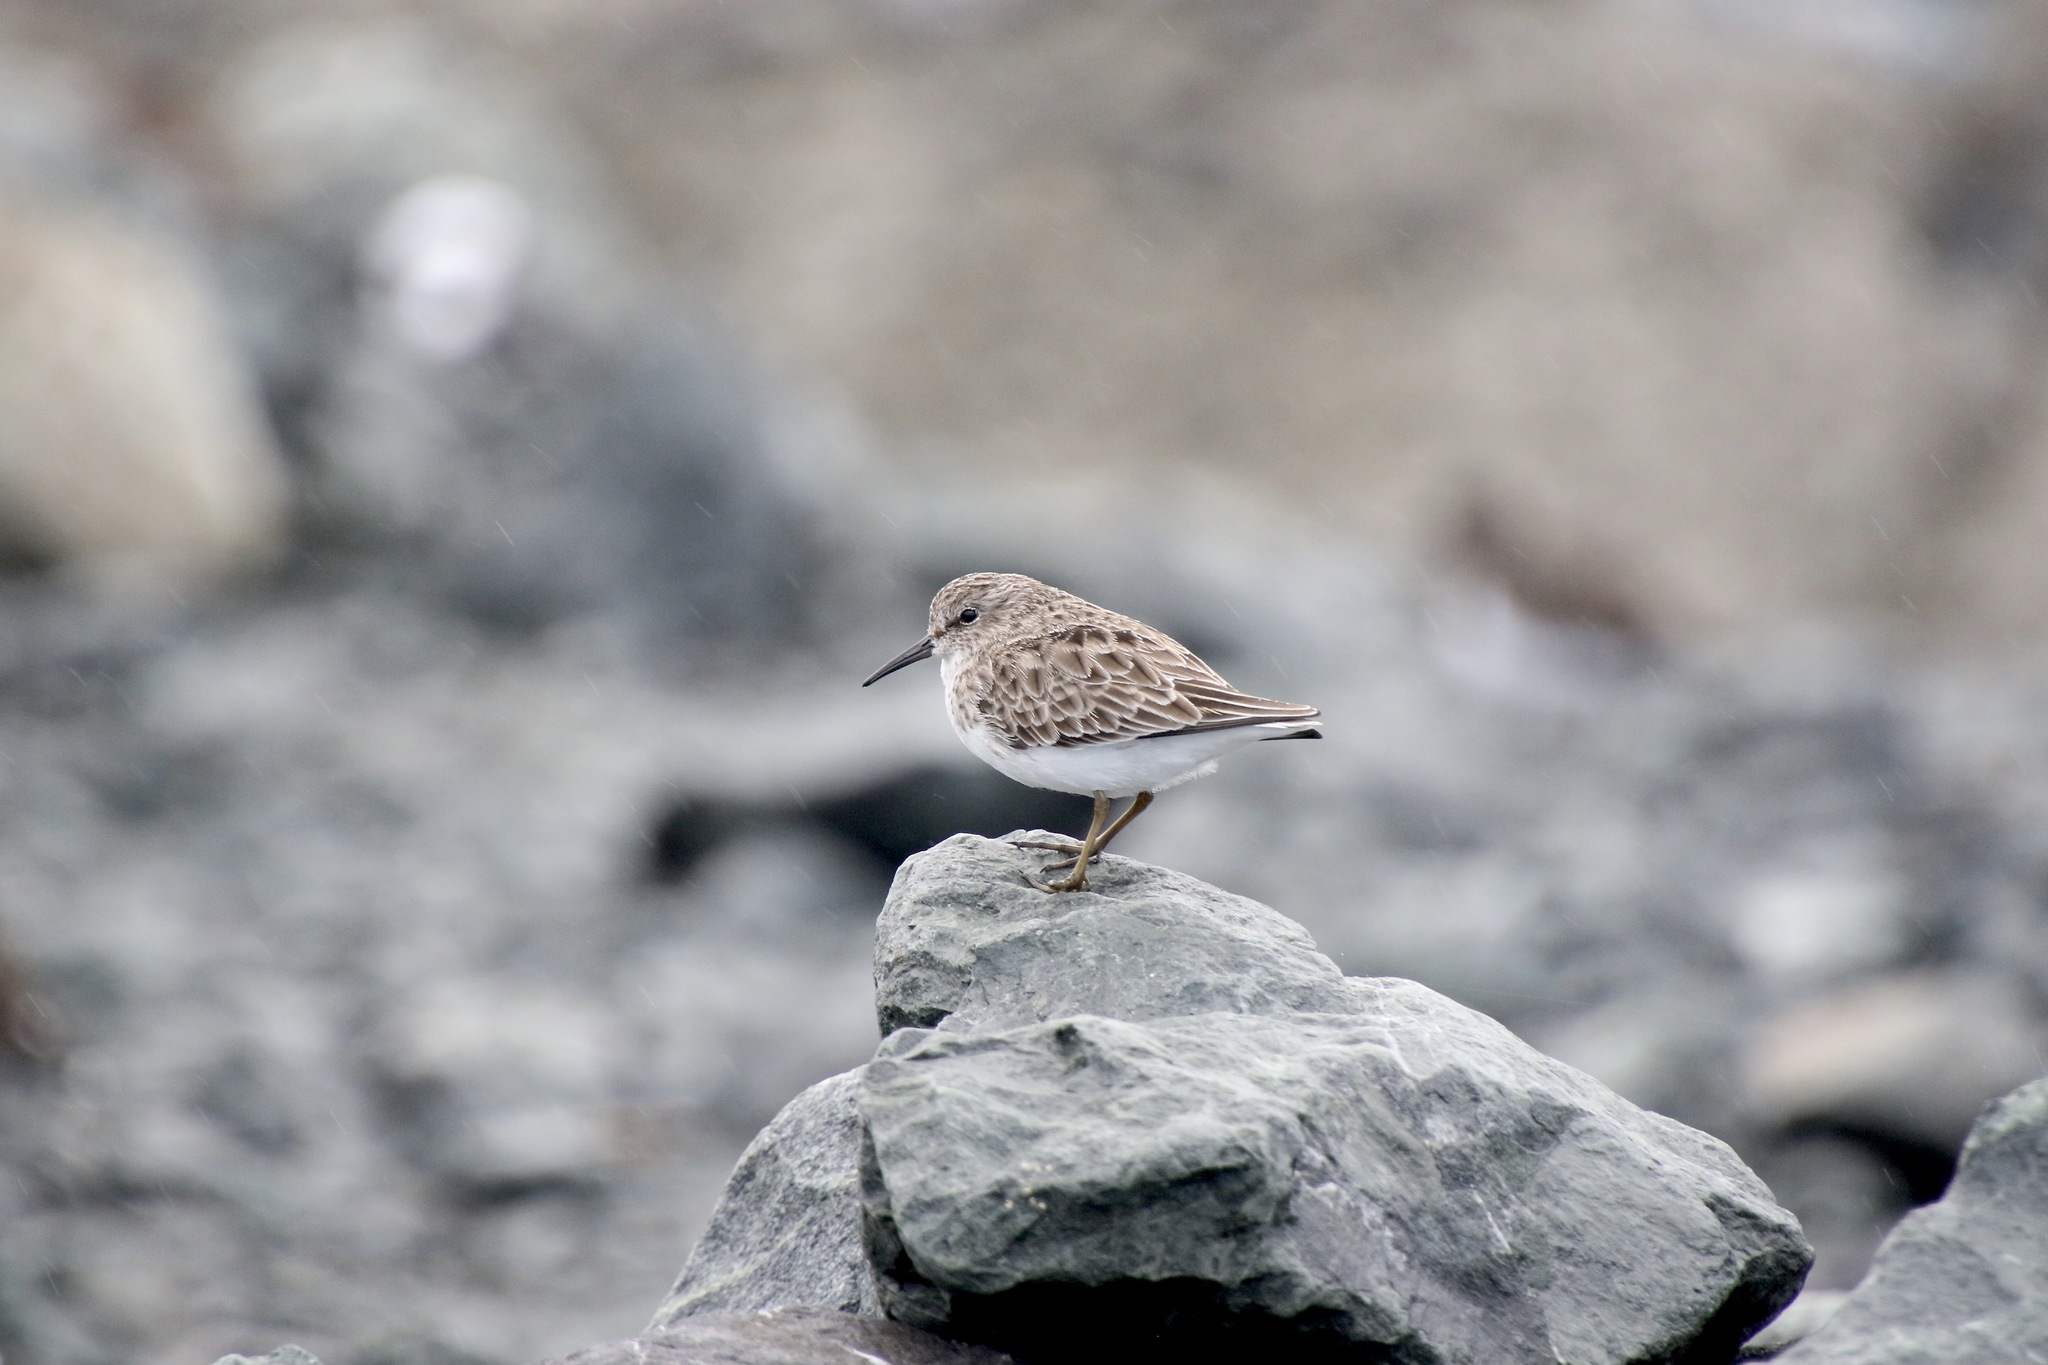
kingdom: Animalia
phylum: Chordata
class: Aves
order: Charadriiformes
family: Scolopacidae
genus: Calidris
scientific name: Calidris minutilla
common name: Least sandpiper
